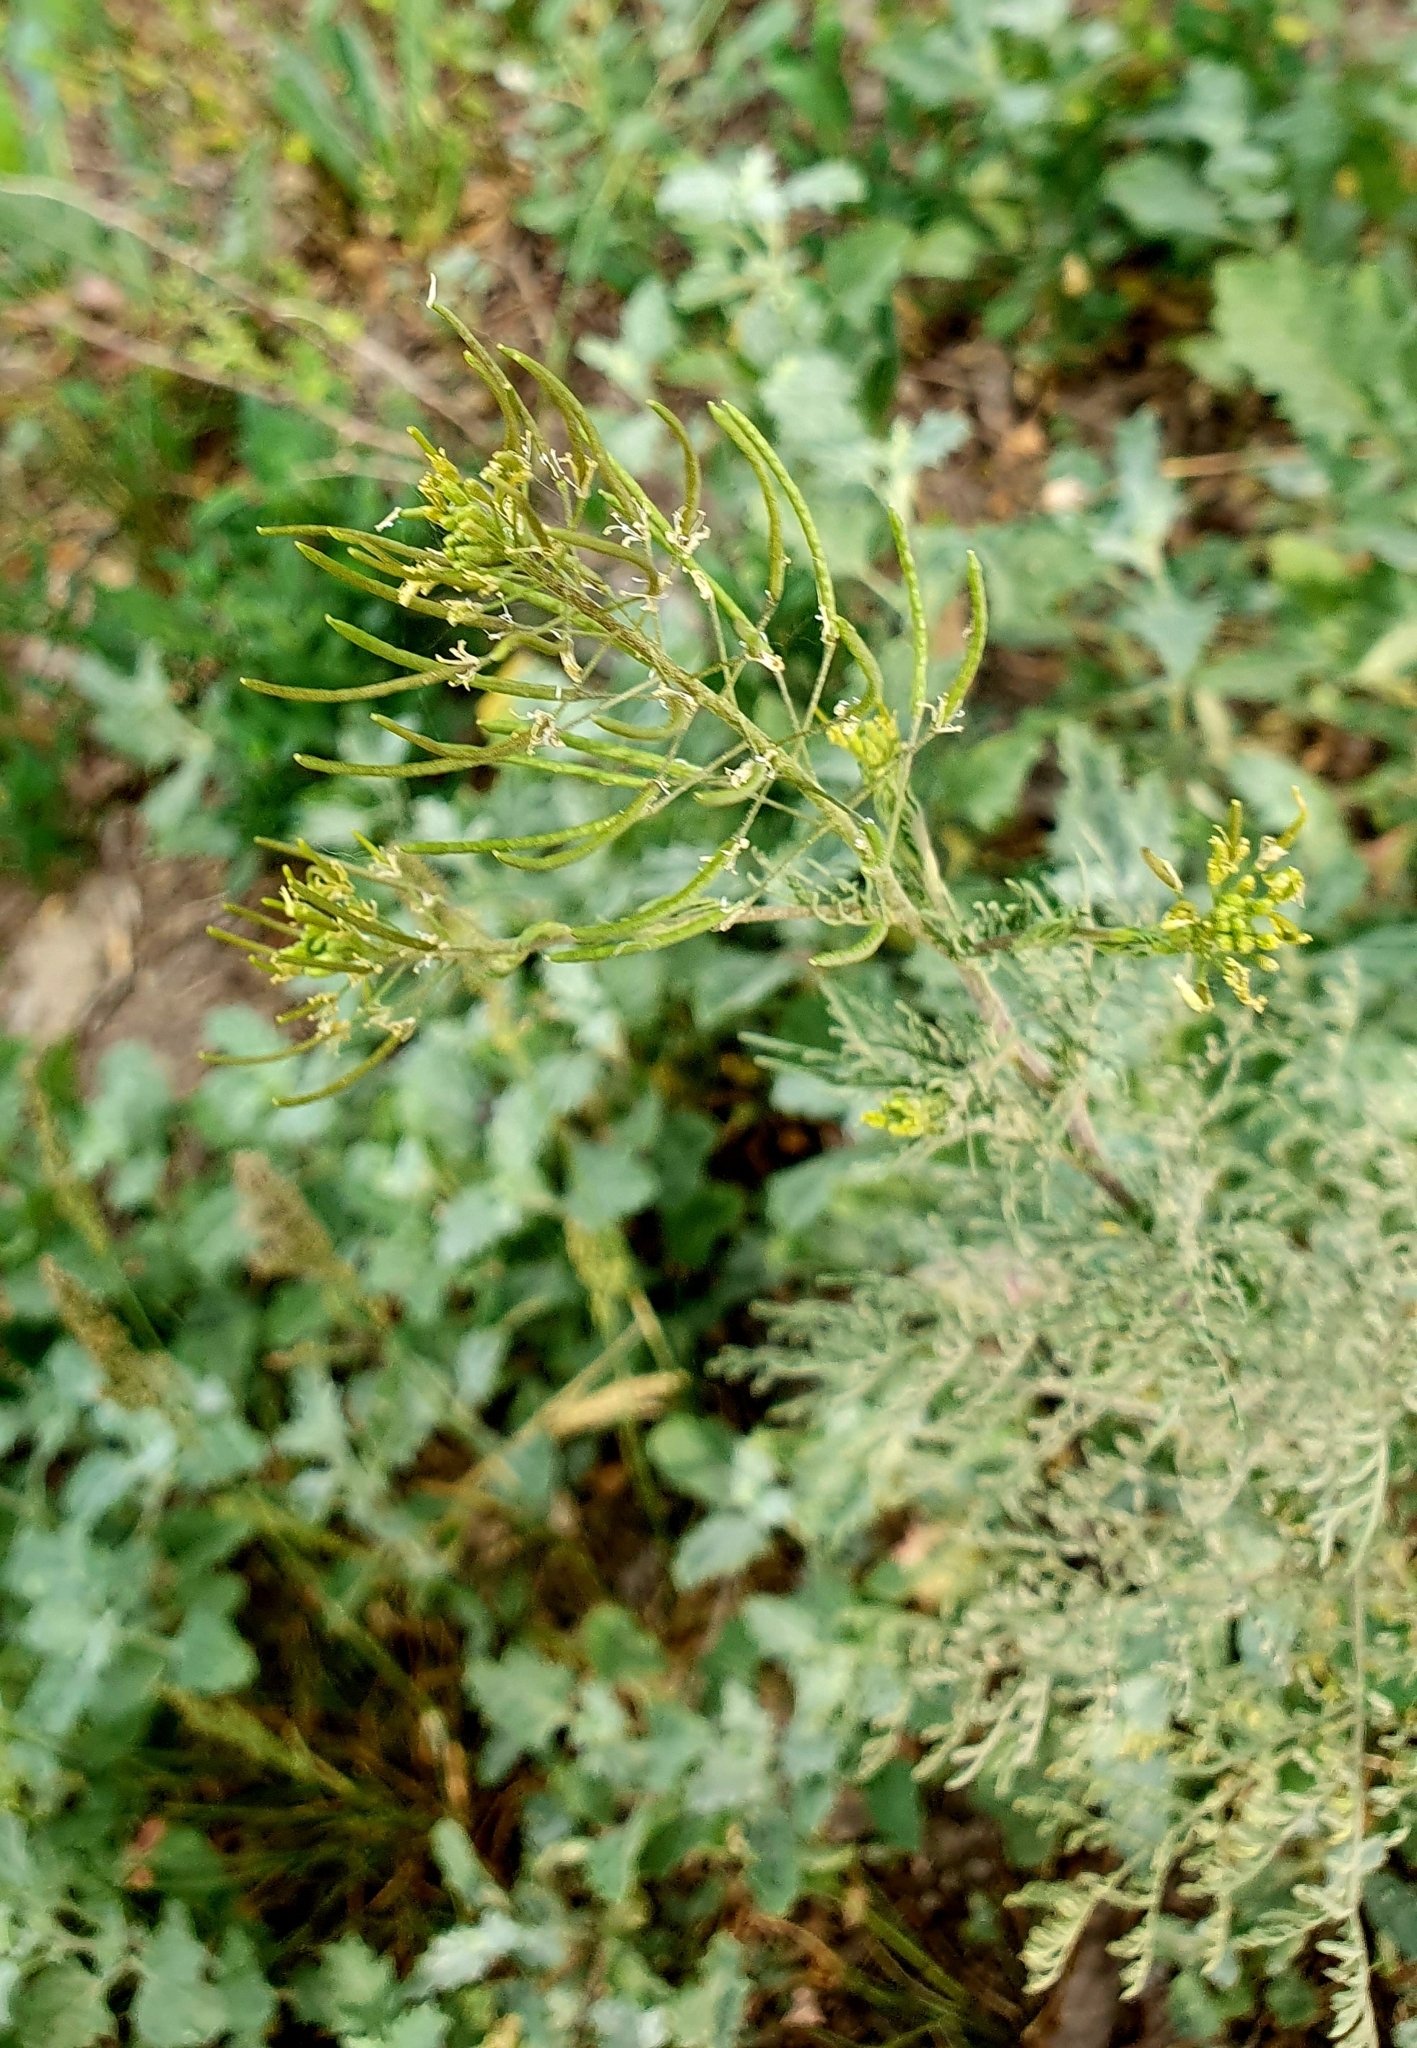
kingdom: Plantae
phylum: Tracheophyta
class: Magnoliopsida
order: Brassicales
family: Brassicaceae
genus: Descurainia
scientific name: Descurainia sophia
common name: Flixweed
